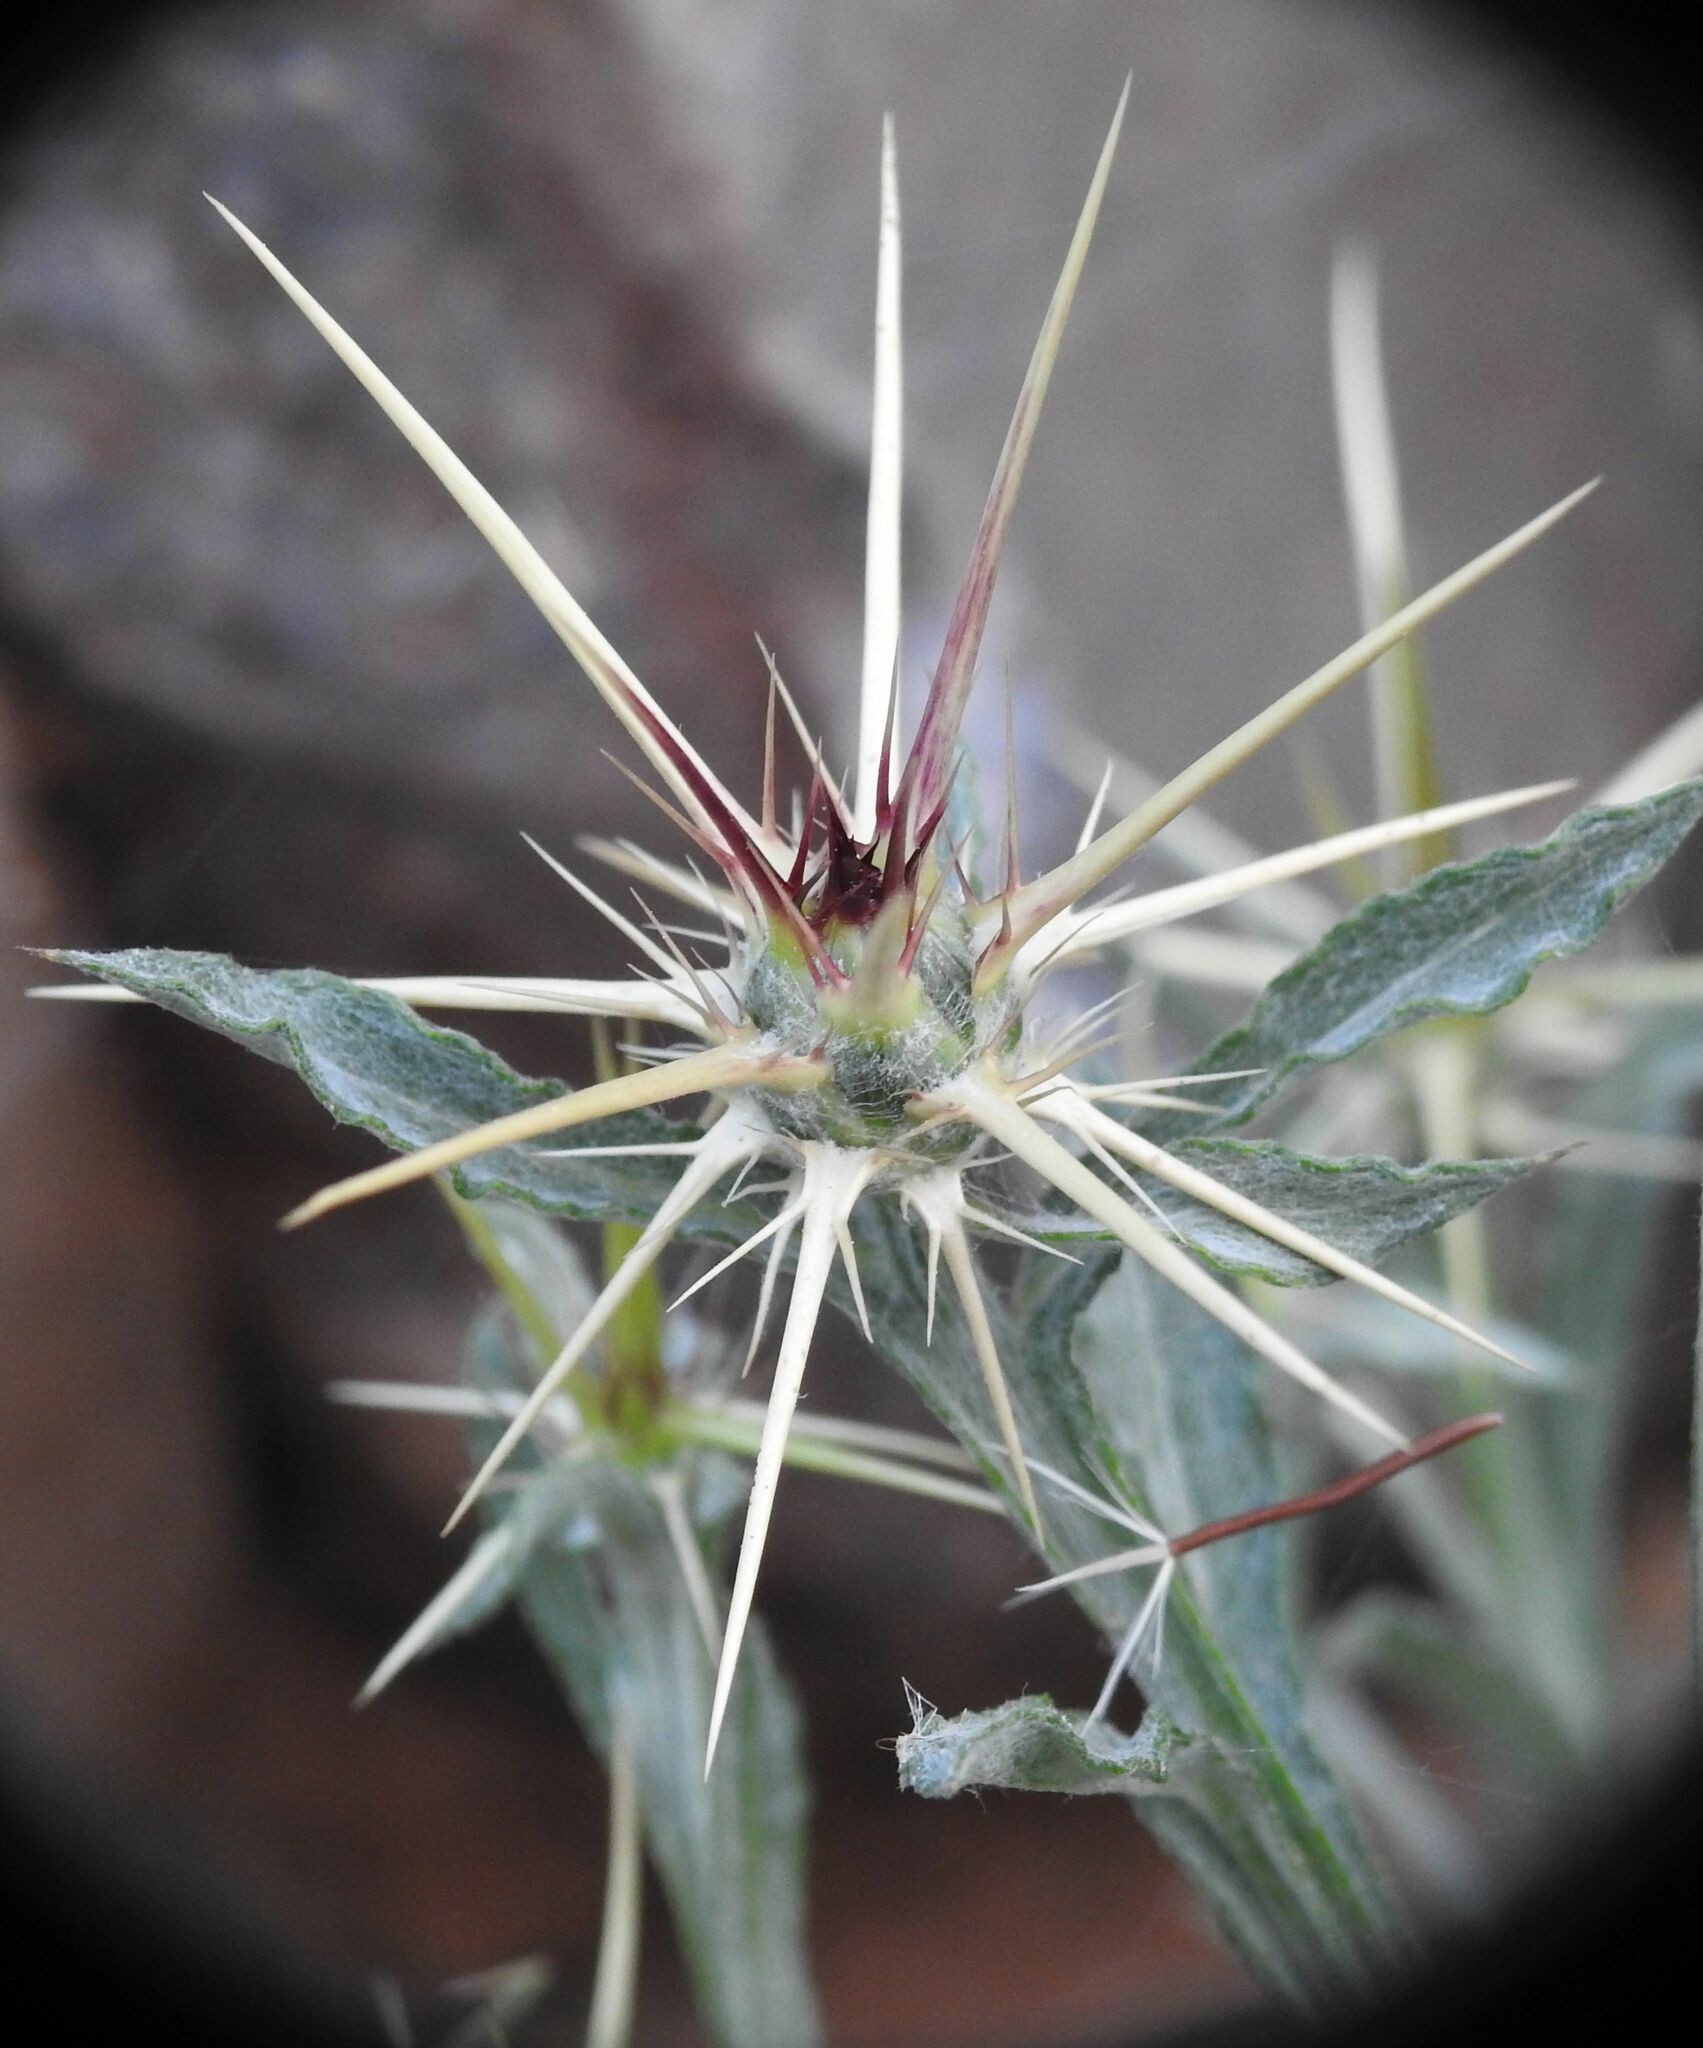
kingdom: Plantae
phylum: Tracheophyta
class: Magnoliopsida
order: Asterales
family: Asteraceae
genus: Centaurea
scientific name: Centaurea idaea
